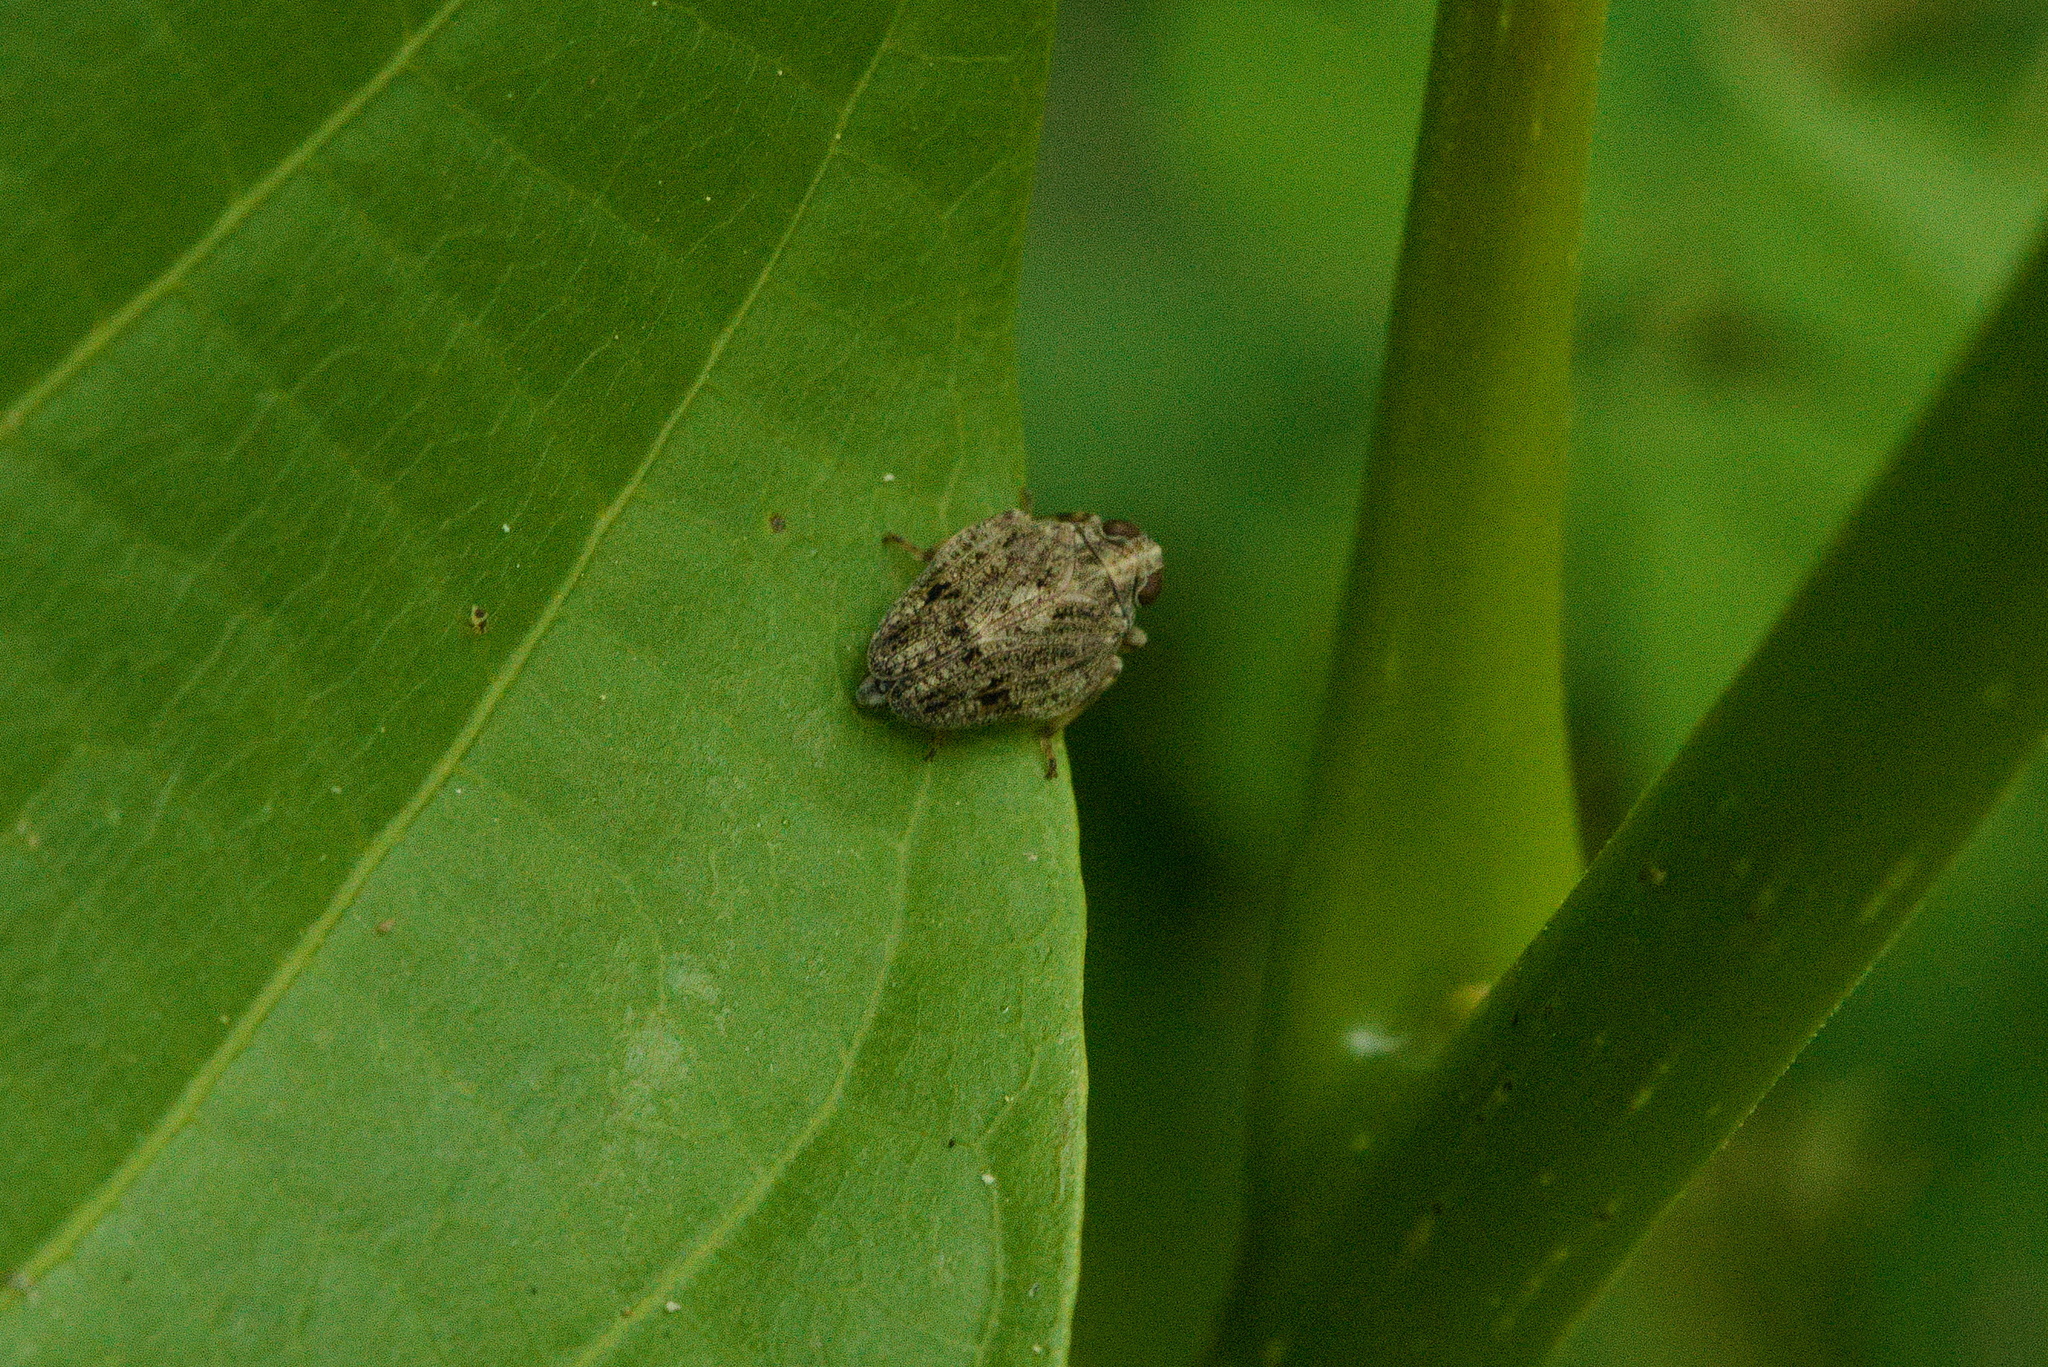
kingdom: Animalia
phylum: Arthropoda
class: Insecta
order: Hemiptera
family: Issidae
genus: Issus
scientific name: Issus coleoptratus
